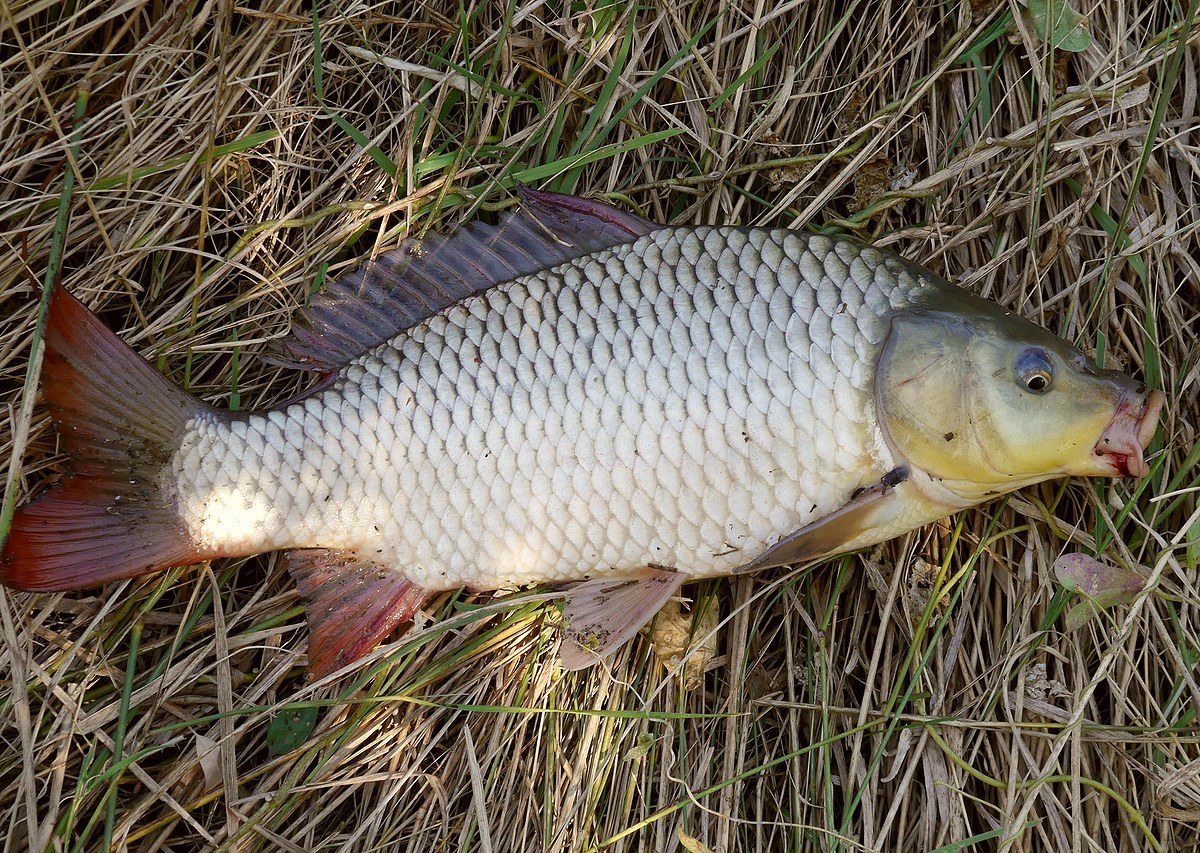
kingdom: Animalia
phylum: Chordata
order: Cypriniformes
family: Cyprinidae
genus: Cyprinus
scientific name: Cyprinus carpio
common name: Common carp
